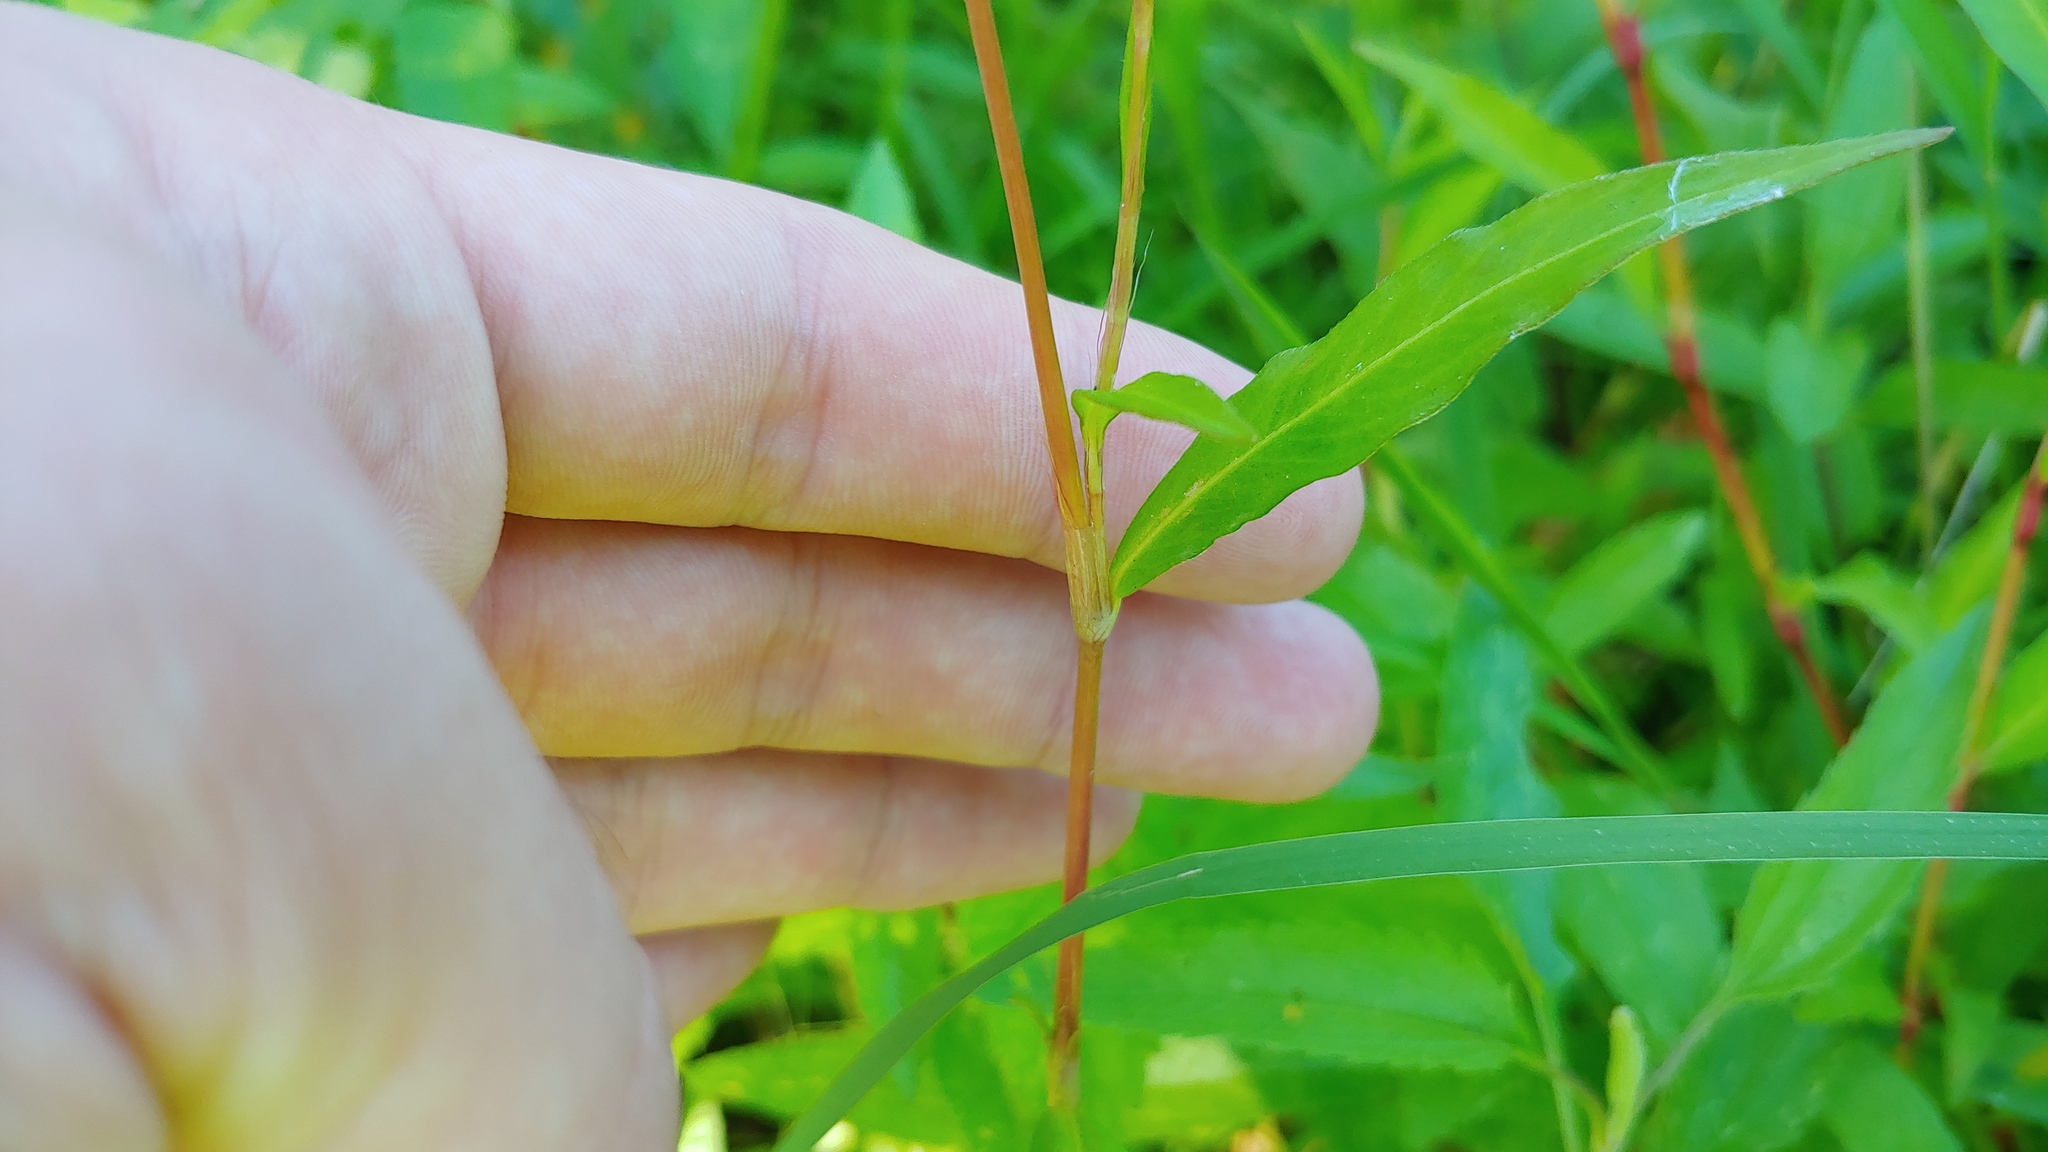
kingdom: Plantae
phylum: Tracheophyta
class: Magnoliopsida
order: Caryophyllales
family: Polygonaceae
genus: Persicaria
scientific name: Persicaria longiseta
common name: Bristly lady's-thumb
